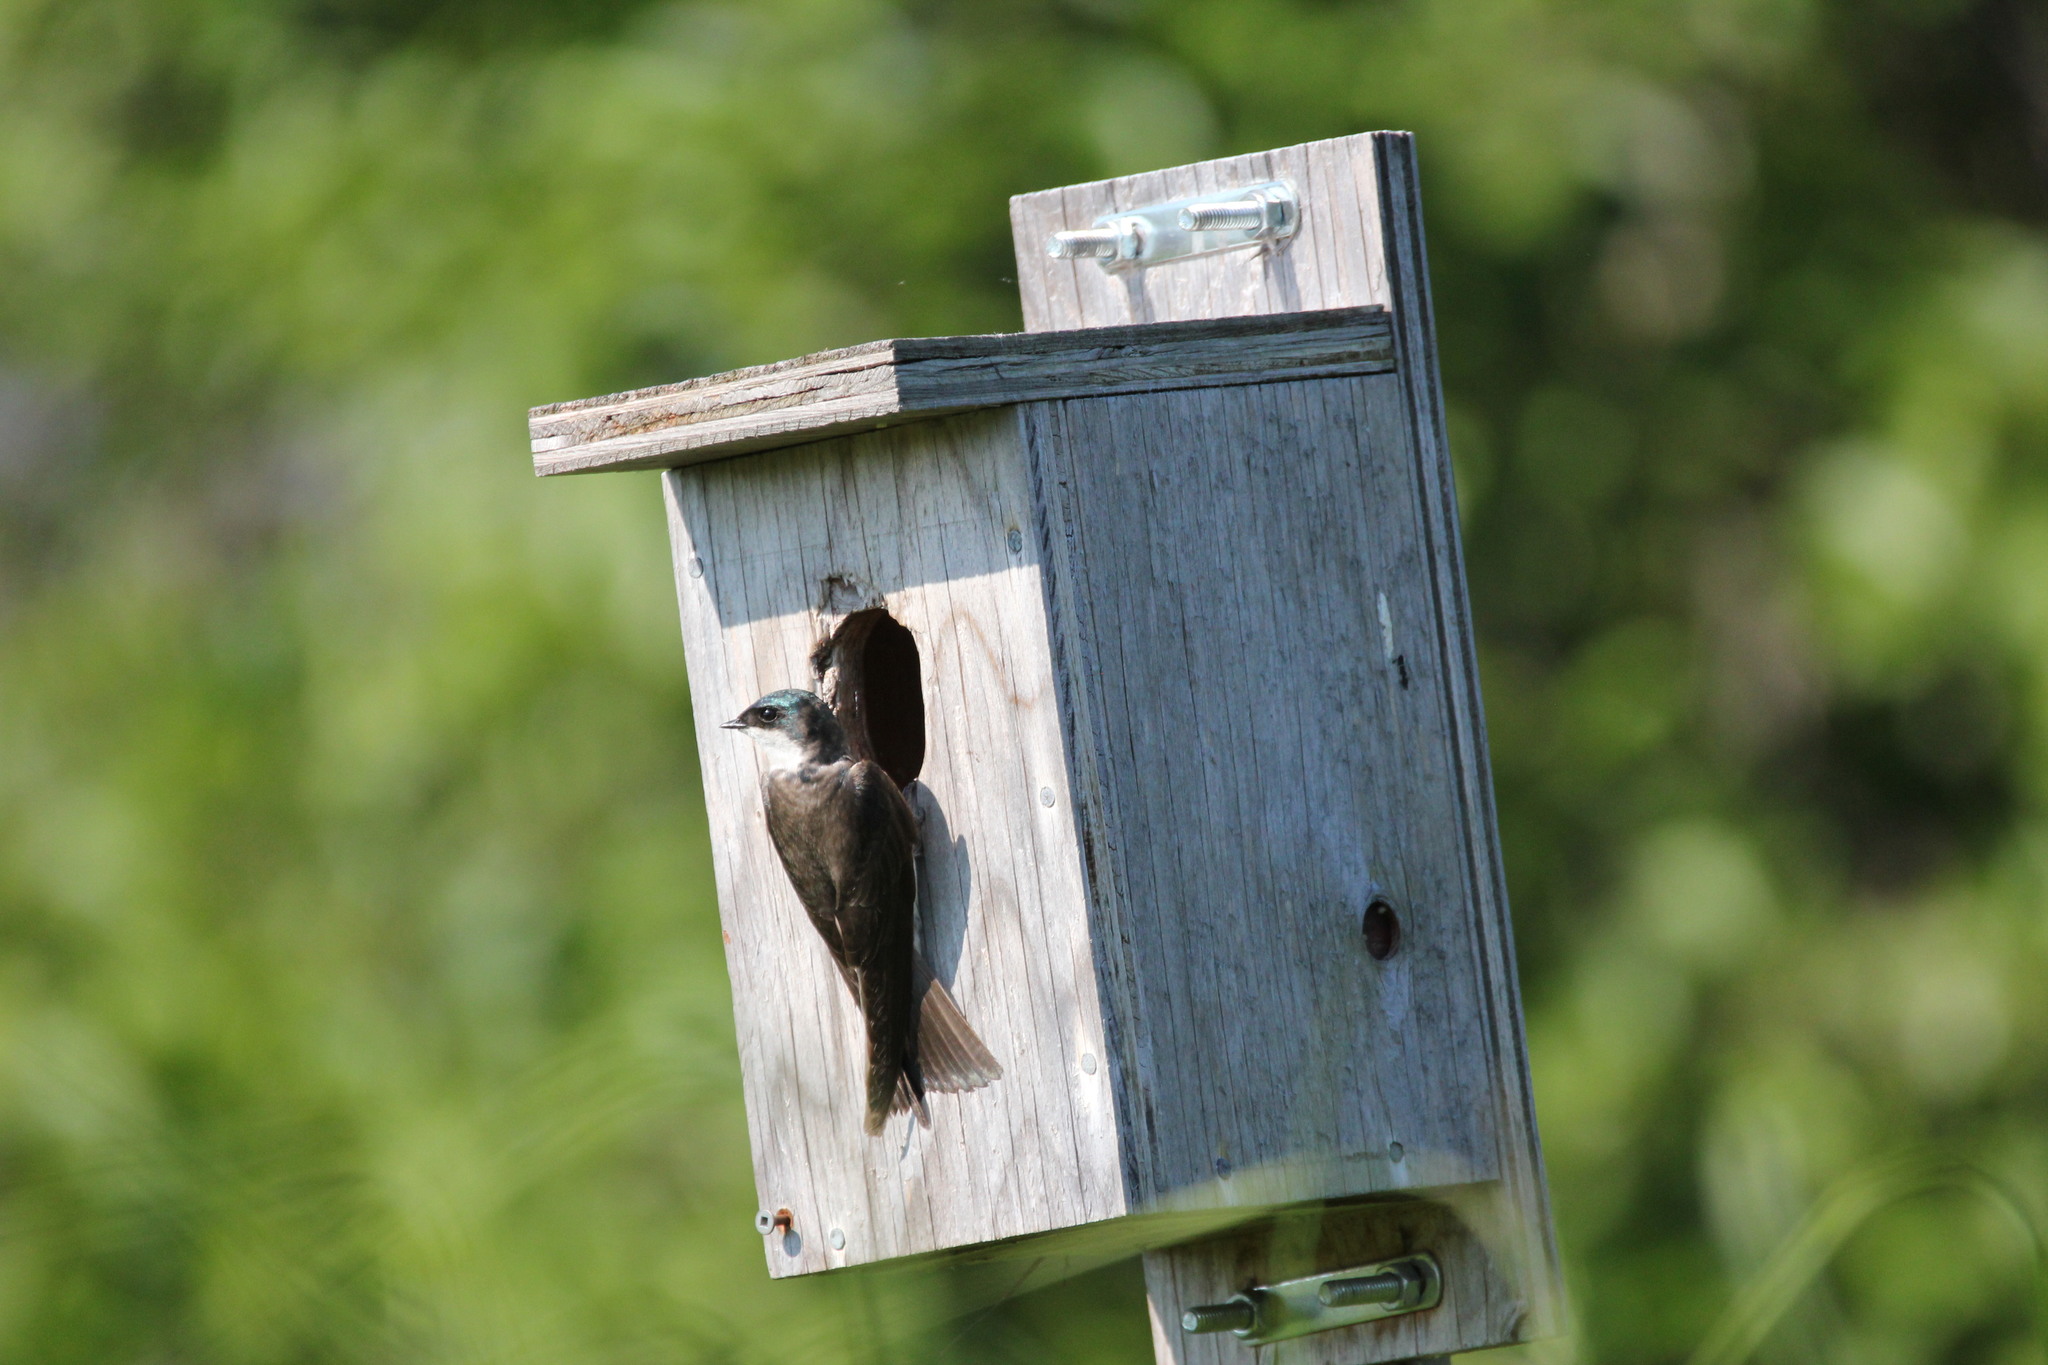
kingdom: Animalia
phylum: Chordata
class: Aves
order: Passeriformes
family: Hirundinidae
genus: Tachycineta
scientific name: Tachycineta bicolor
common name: Tree swallow
